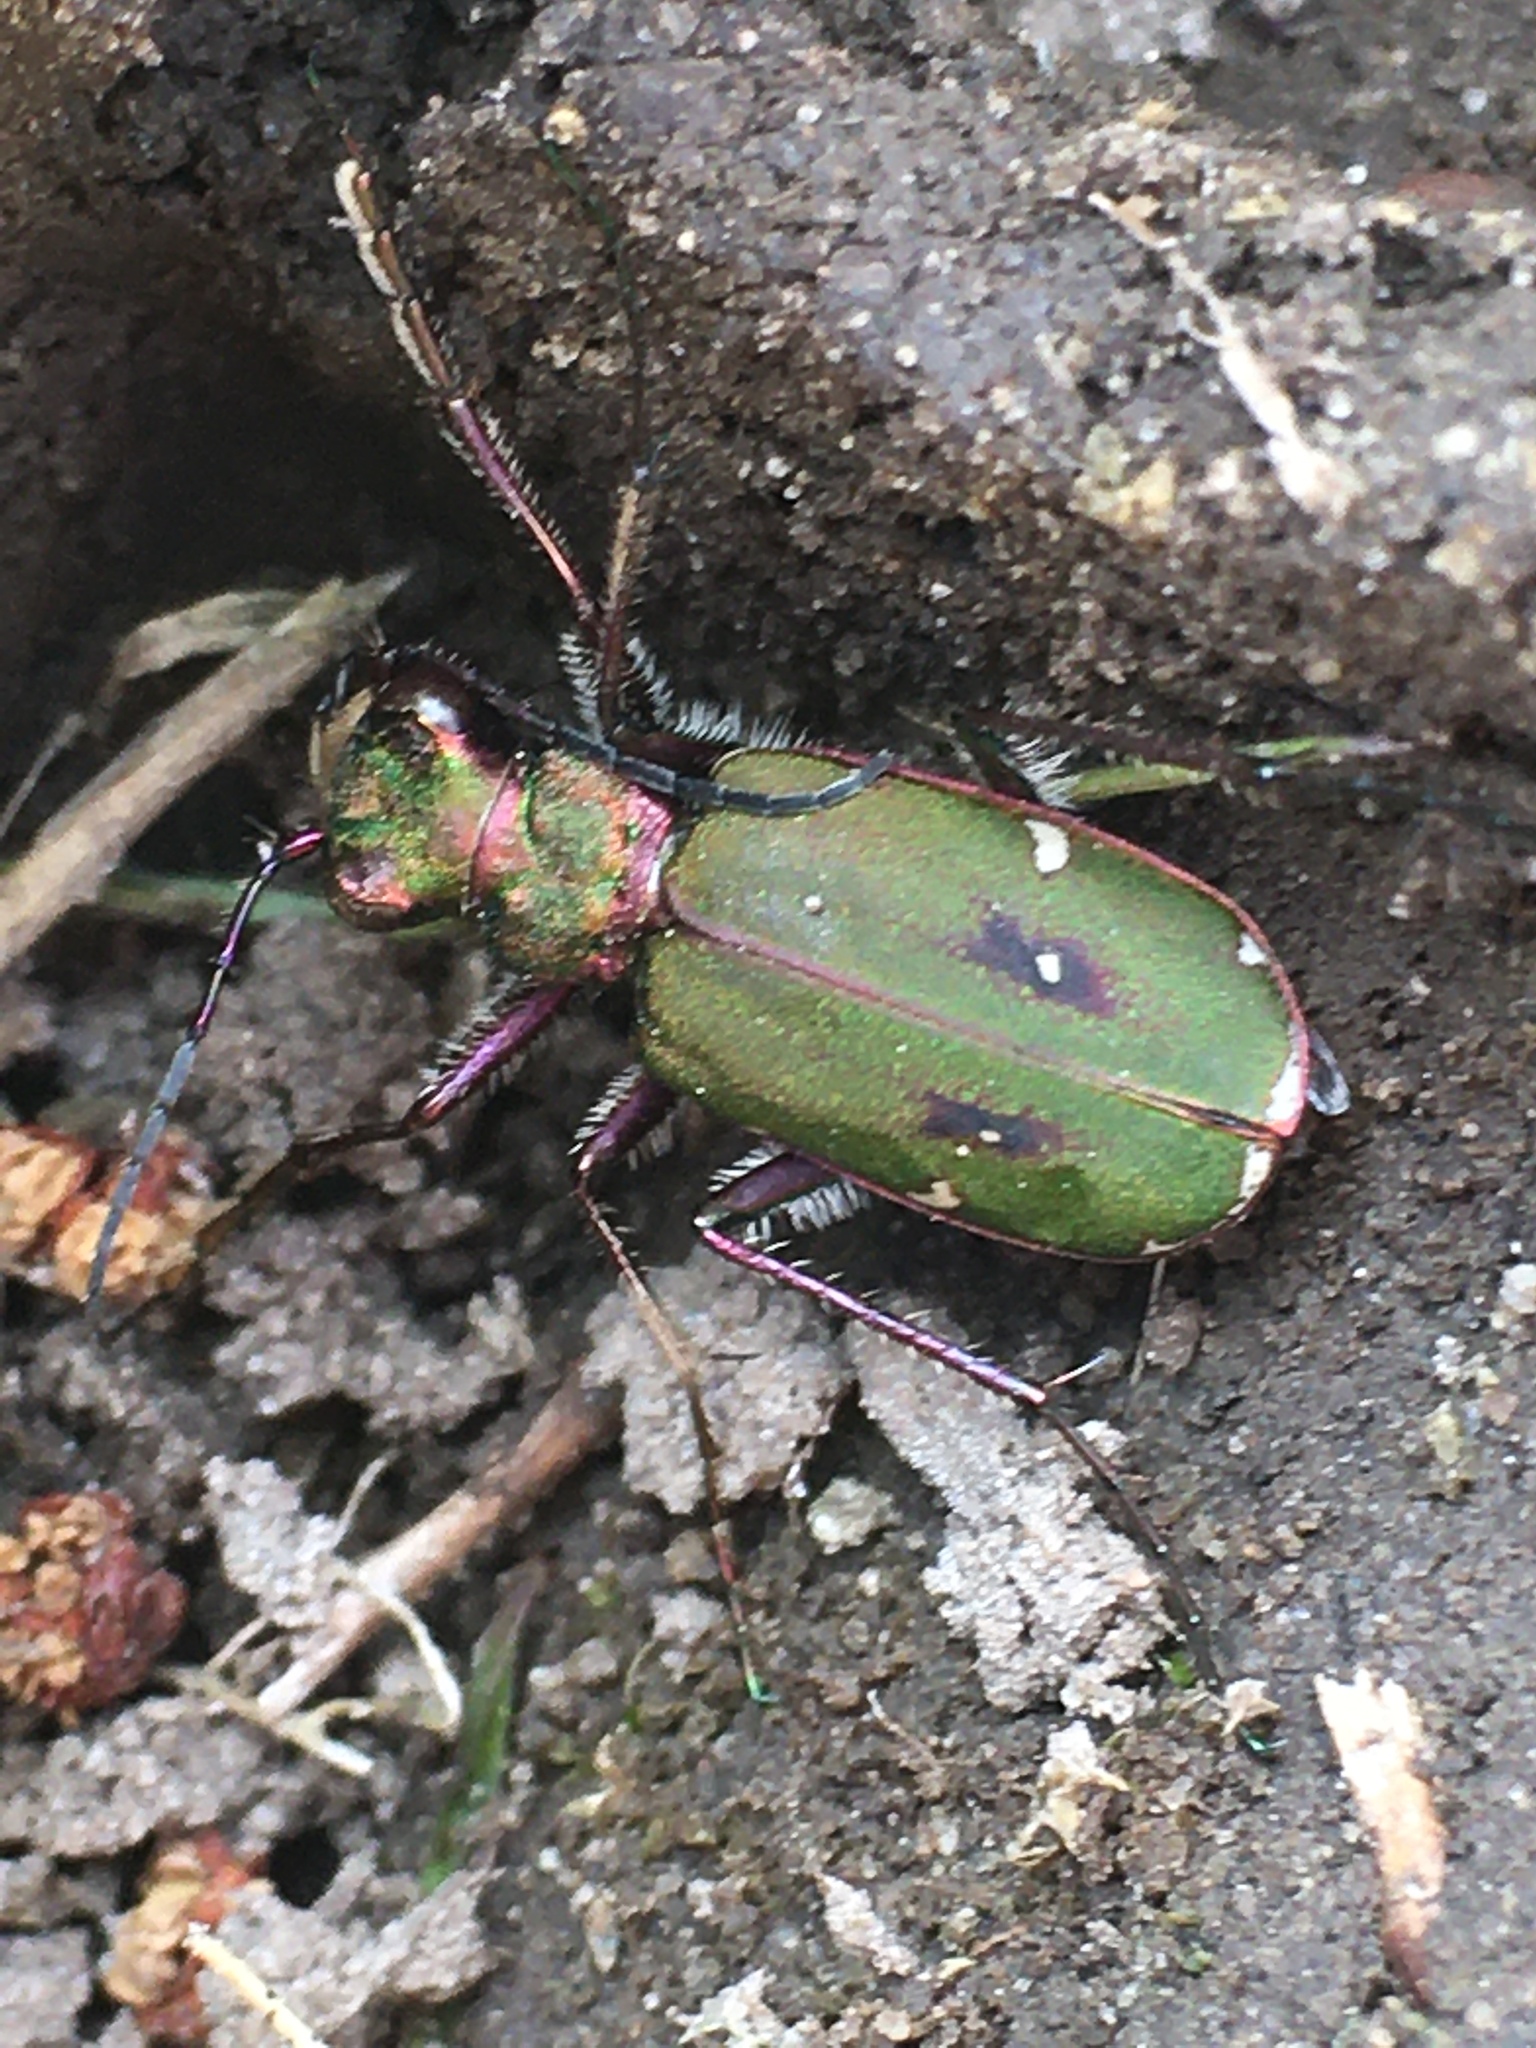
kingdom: Animalia
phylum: Arthropoda
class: Insecta
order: Coleoptera
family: Carabidae
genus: Cicindela
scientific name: Cicindela campestris
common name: Common tiger beetle
